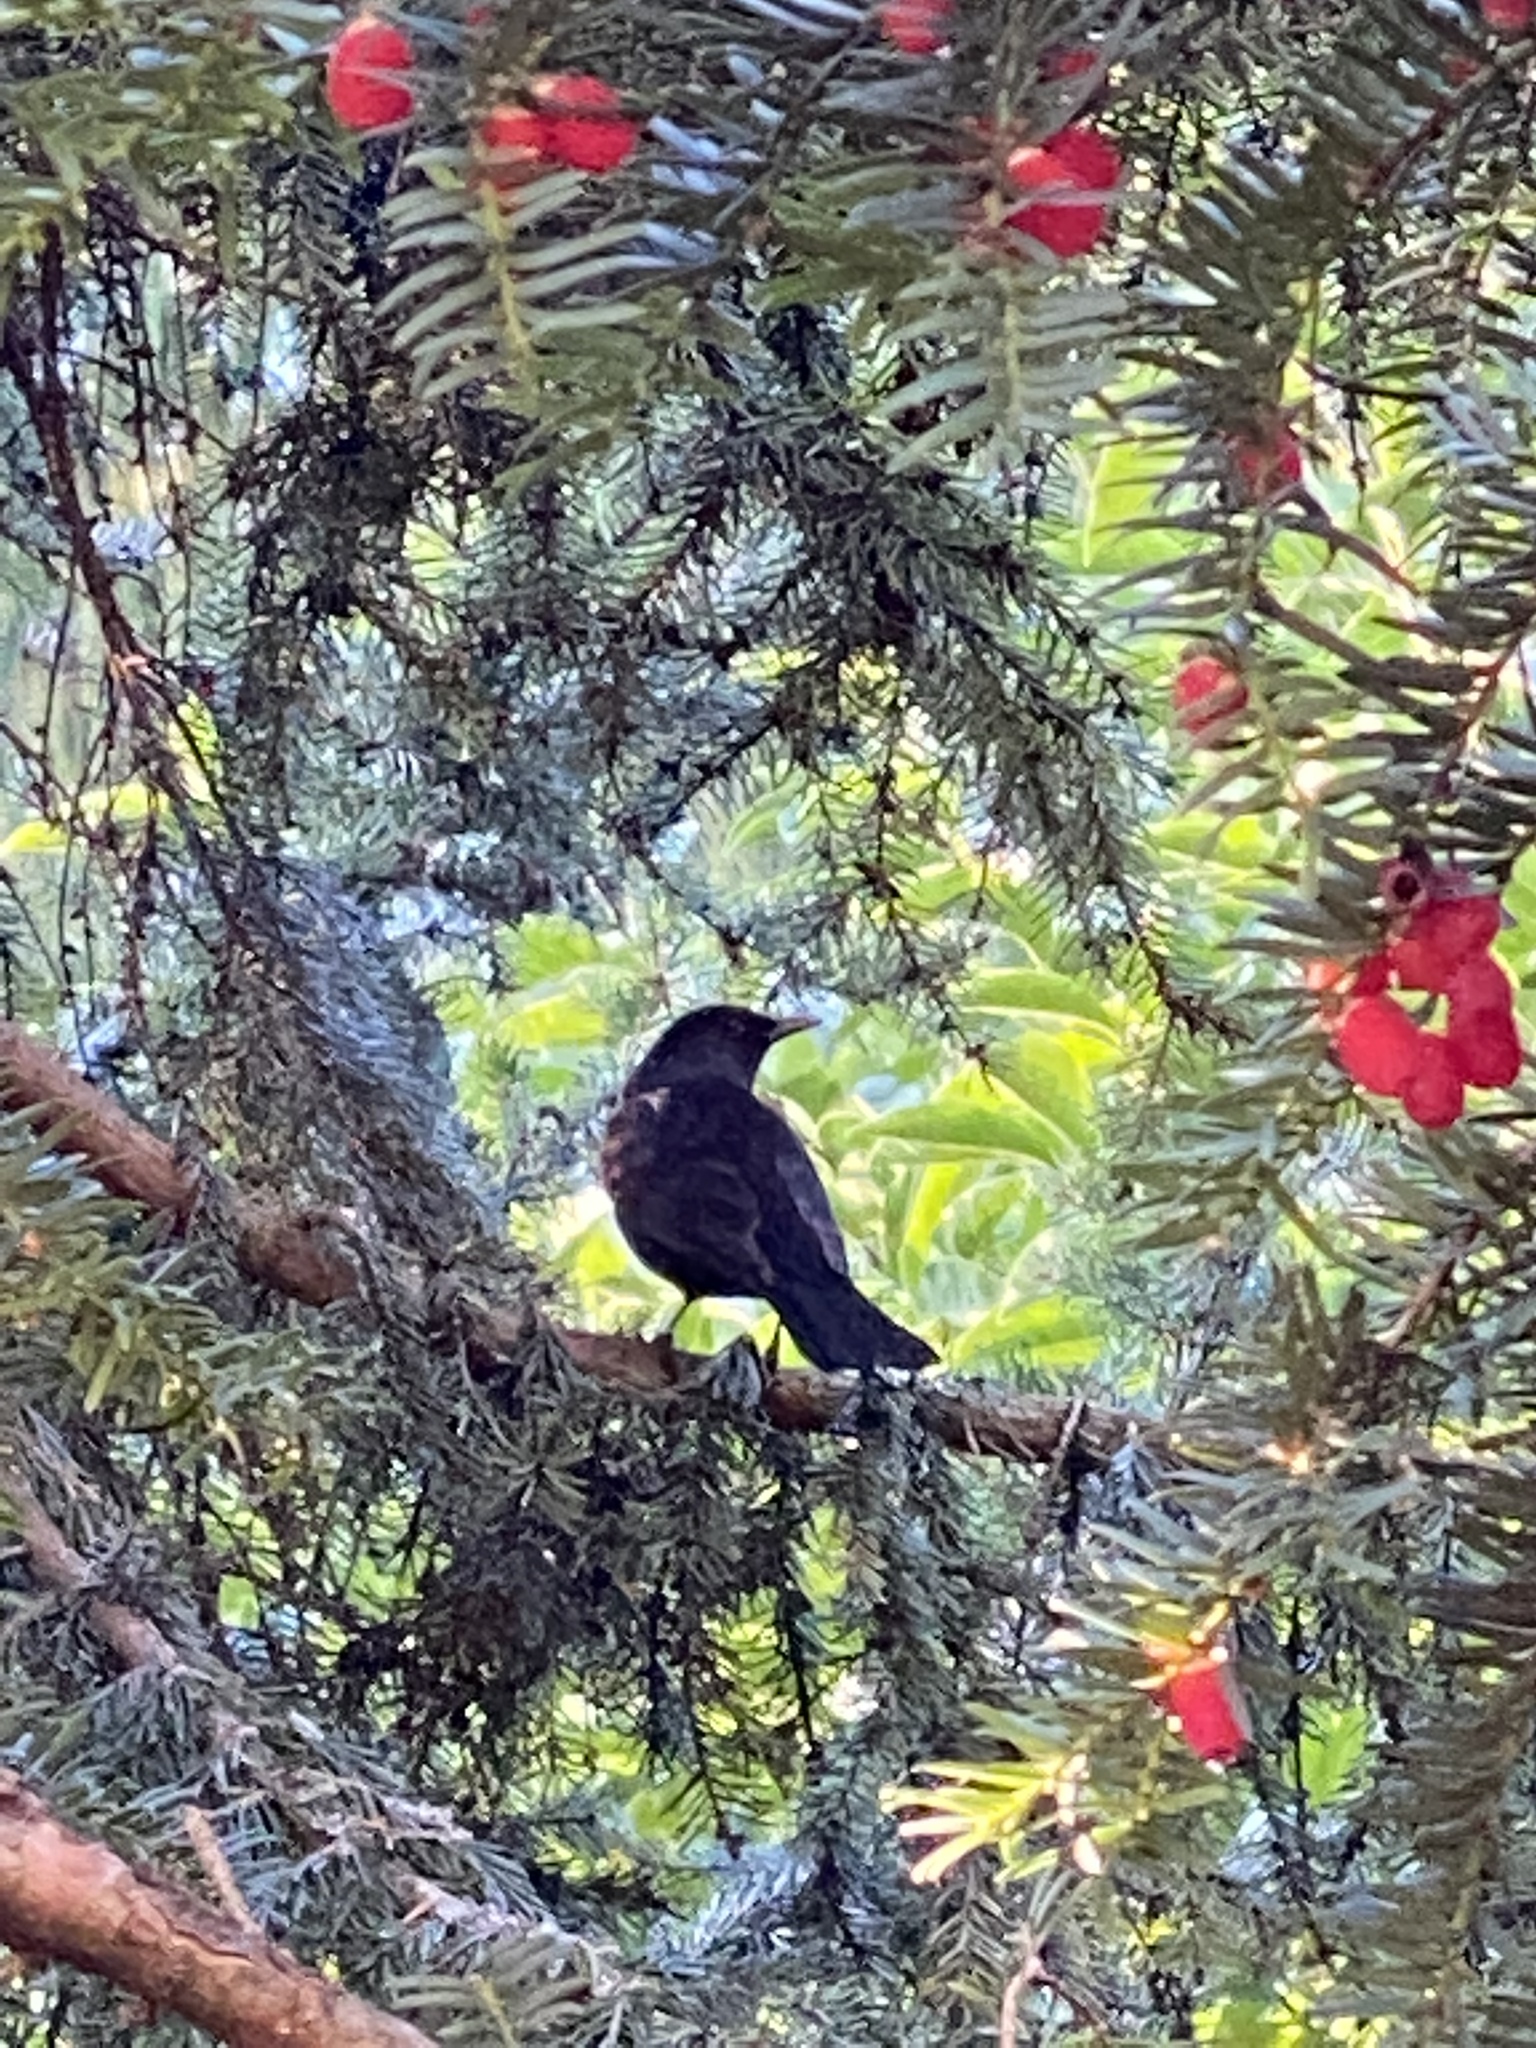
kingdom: Animalia
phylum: Chordata
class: Aves
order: Passeriformes
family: Turdidae
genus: Turdus
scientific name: Turdus merula
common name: Common blackbird
